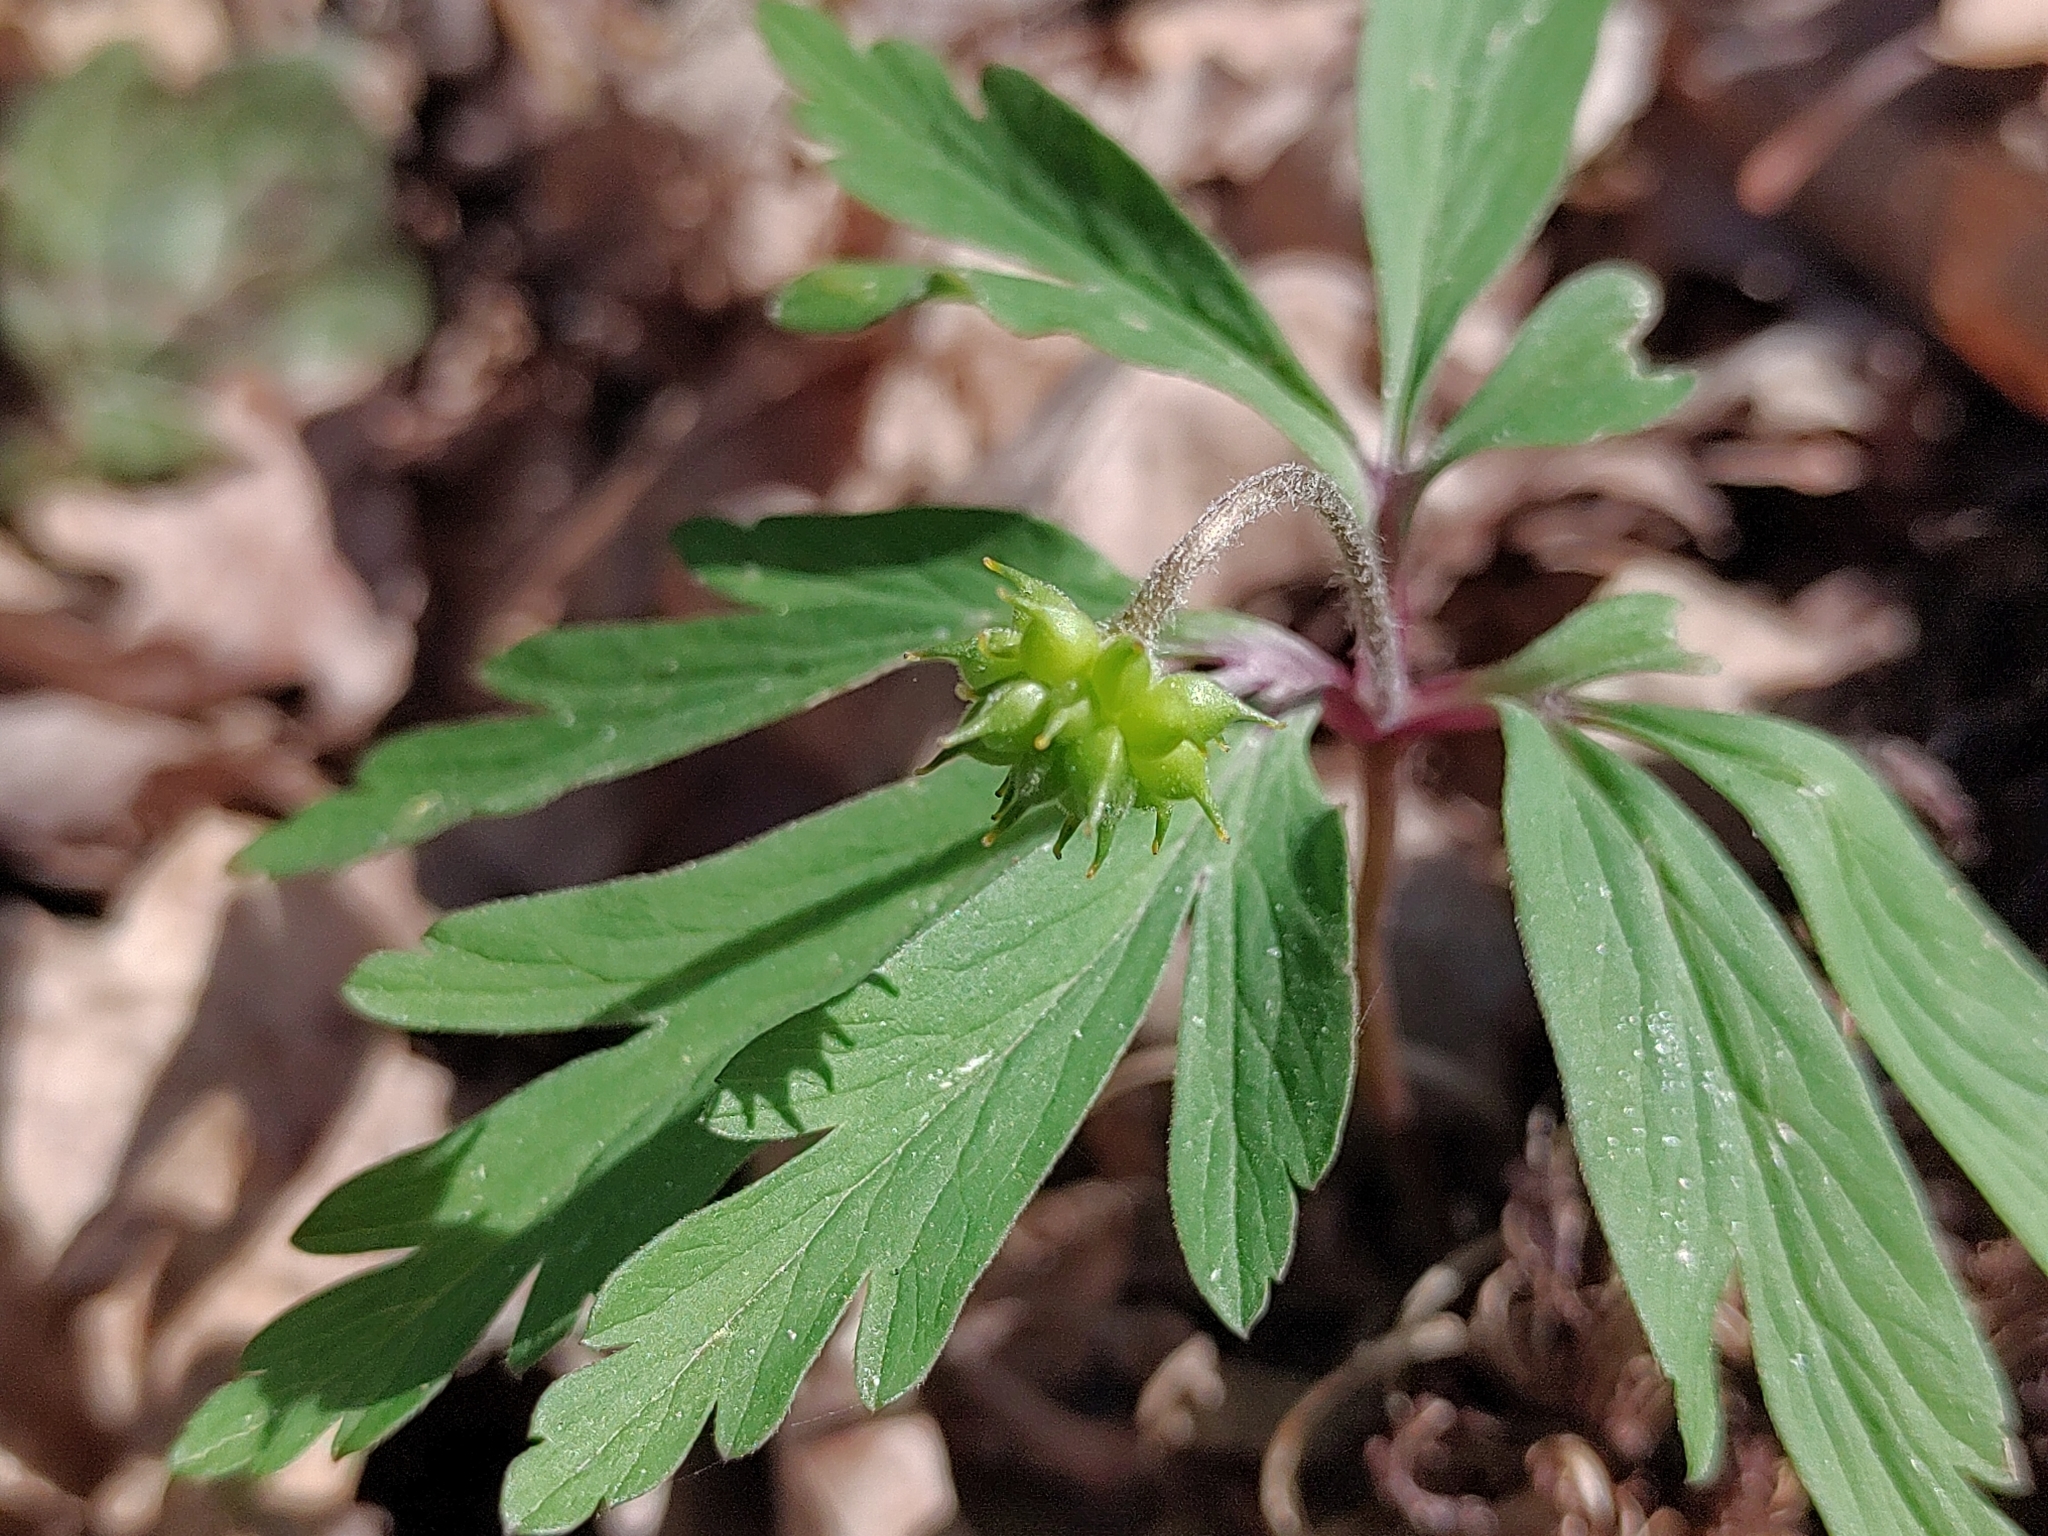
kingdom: Plantae
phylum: Tracheophyta
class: Magnoliopsida
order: Ranunculales
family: Ranunculaceae
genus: Anemone
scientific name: Anemone ranunculoides
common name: Yellow anemone
